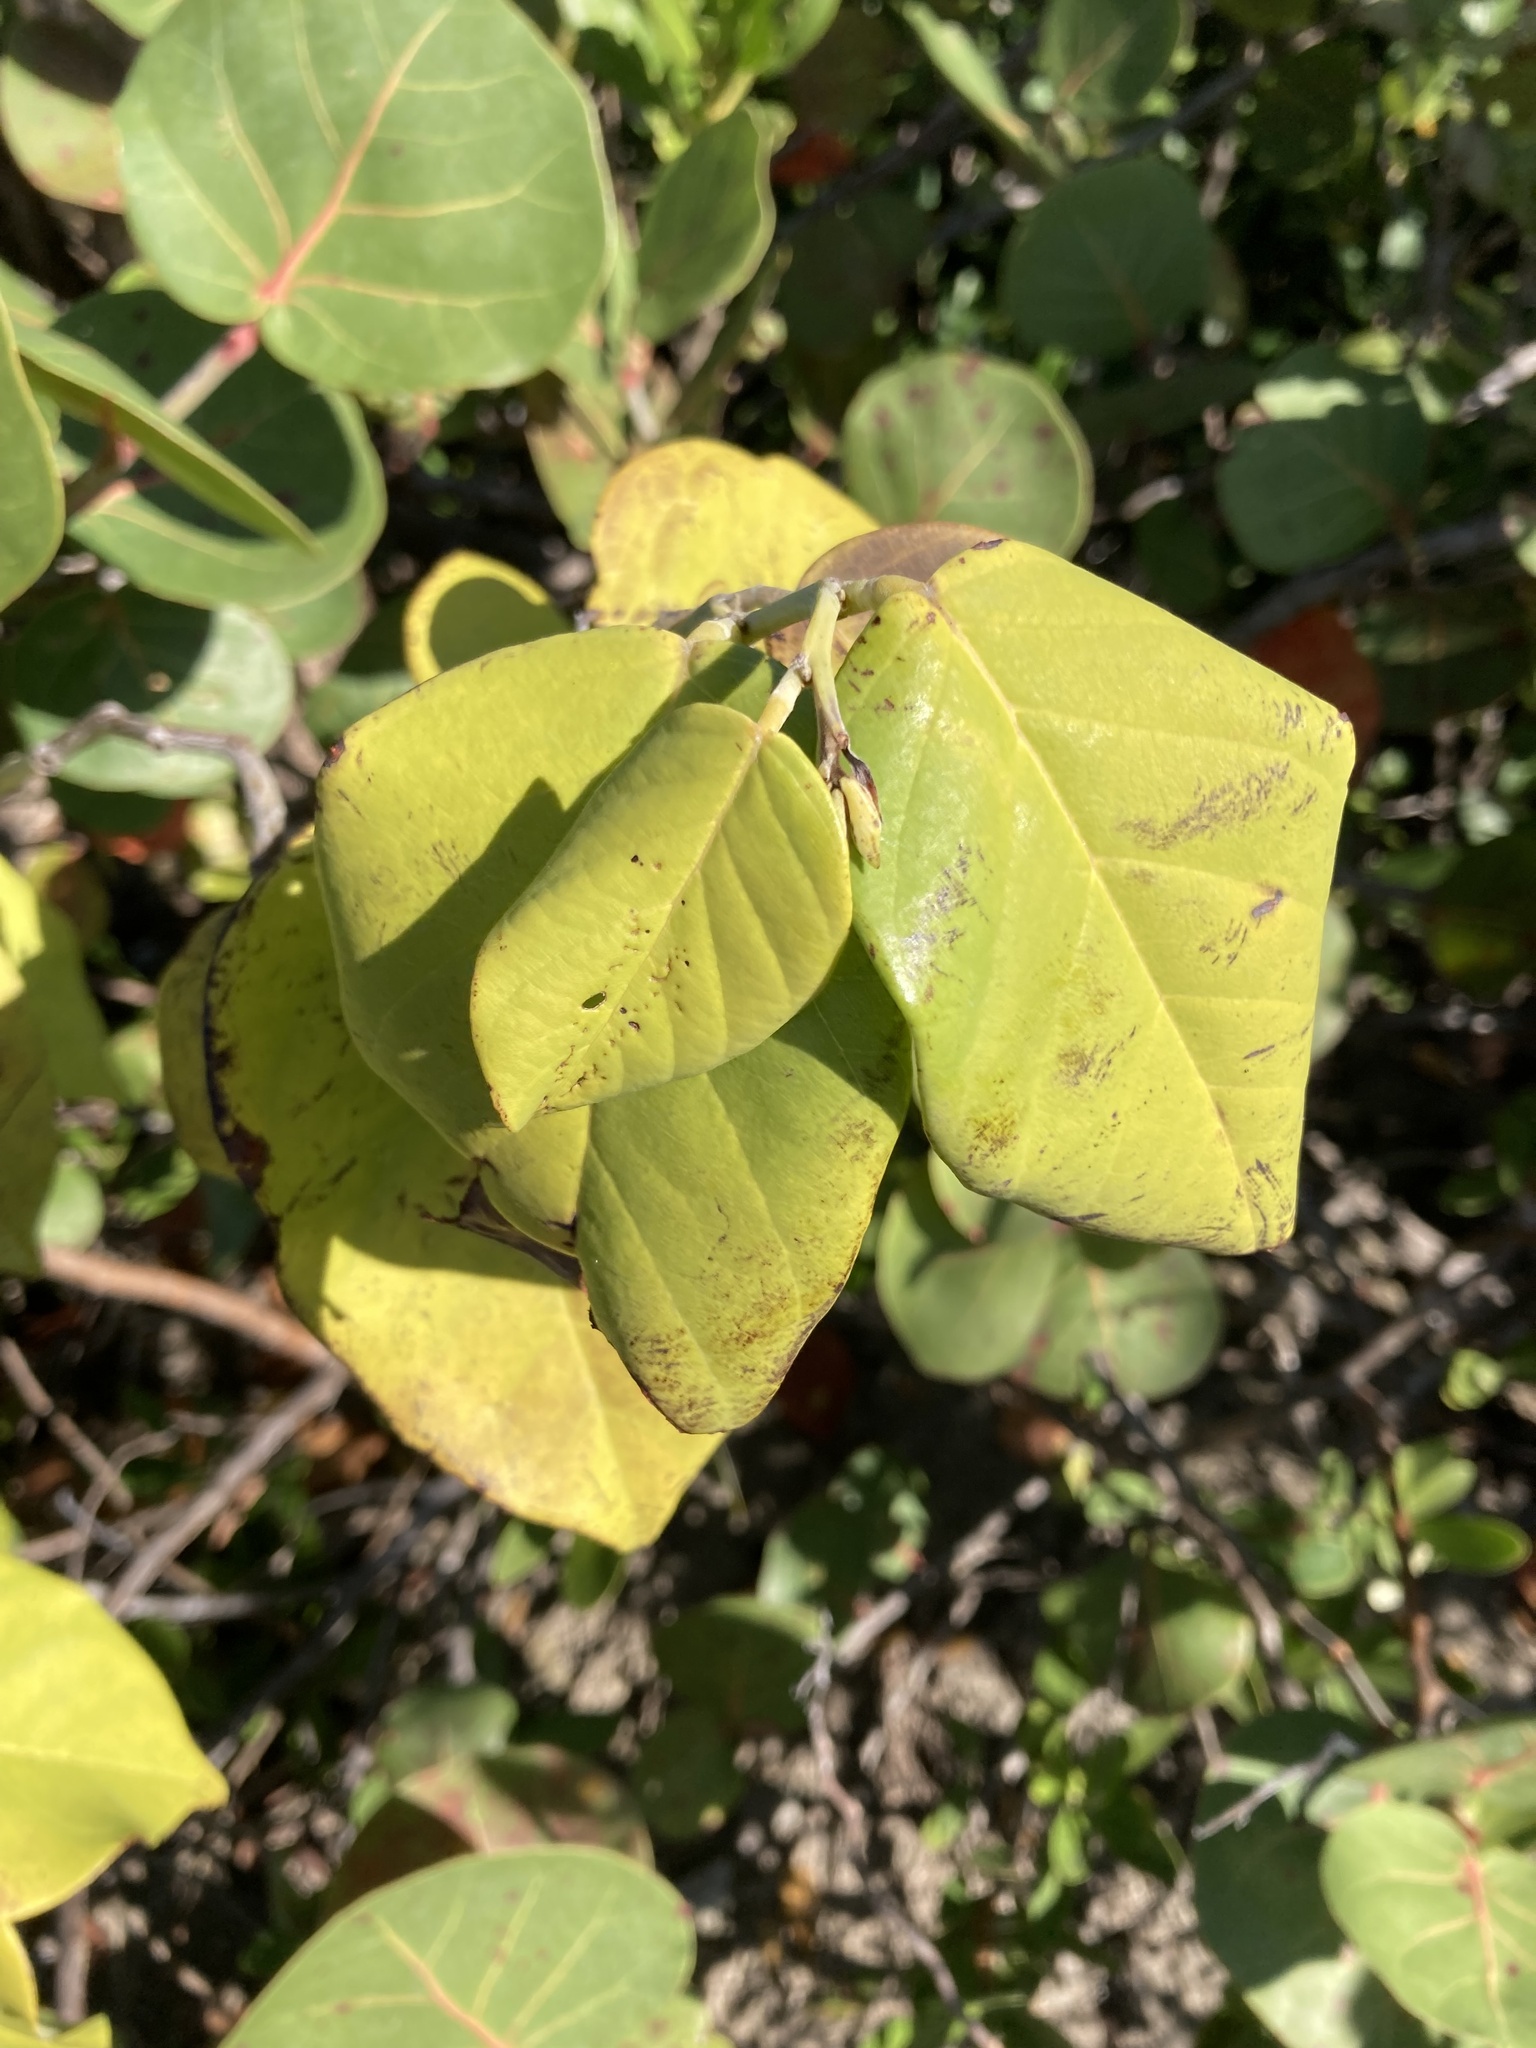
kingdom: Plantae
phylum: Tracheophyta
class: Magnoliopsida
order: Fabales
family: Fabaceae
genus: Dalbergia
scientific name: Dalbergia ecastaphyllum
